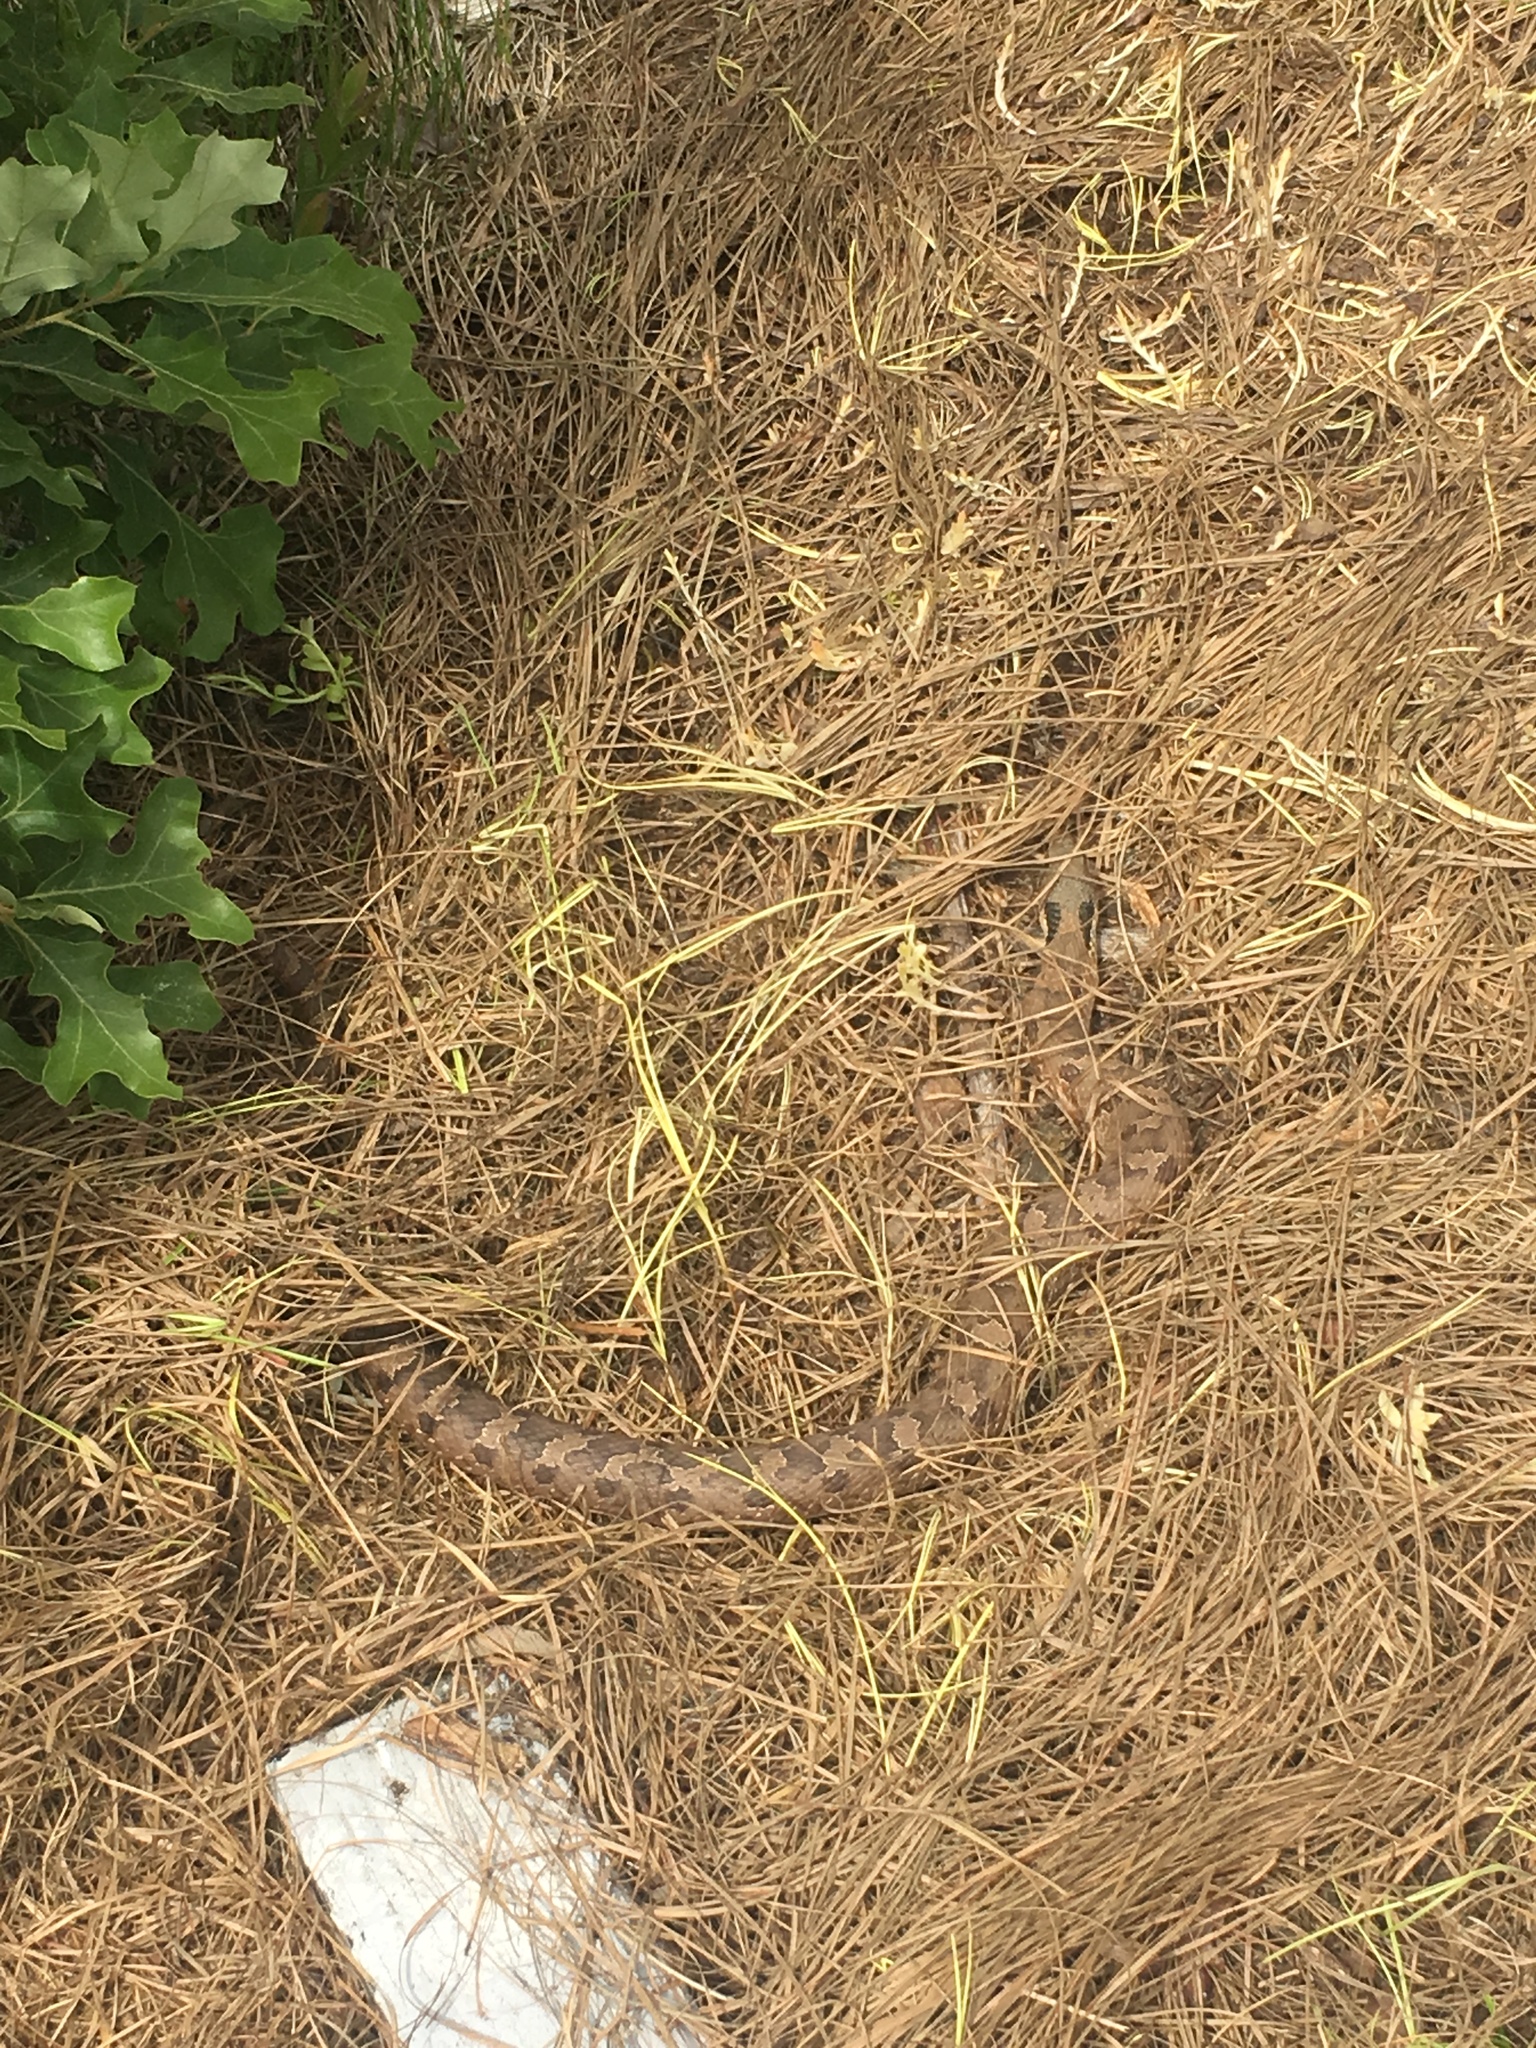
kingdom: Animalia
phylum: Chordata
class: Squamata
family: Colubridae
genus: Heterodon
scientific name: Heterodon platirhinos
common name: Eastern hognose snake
